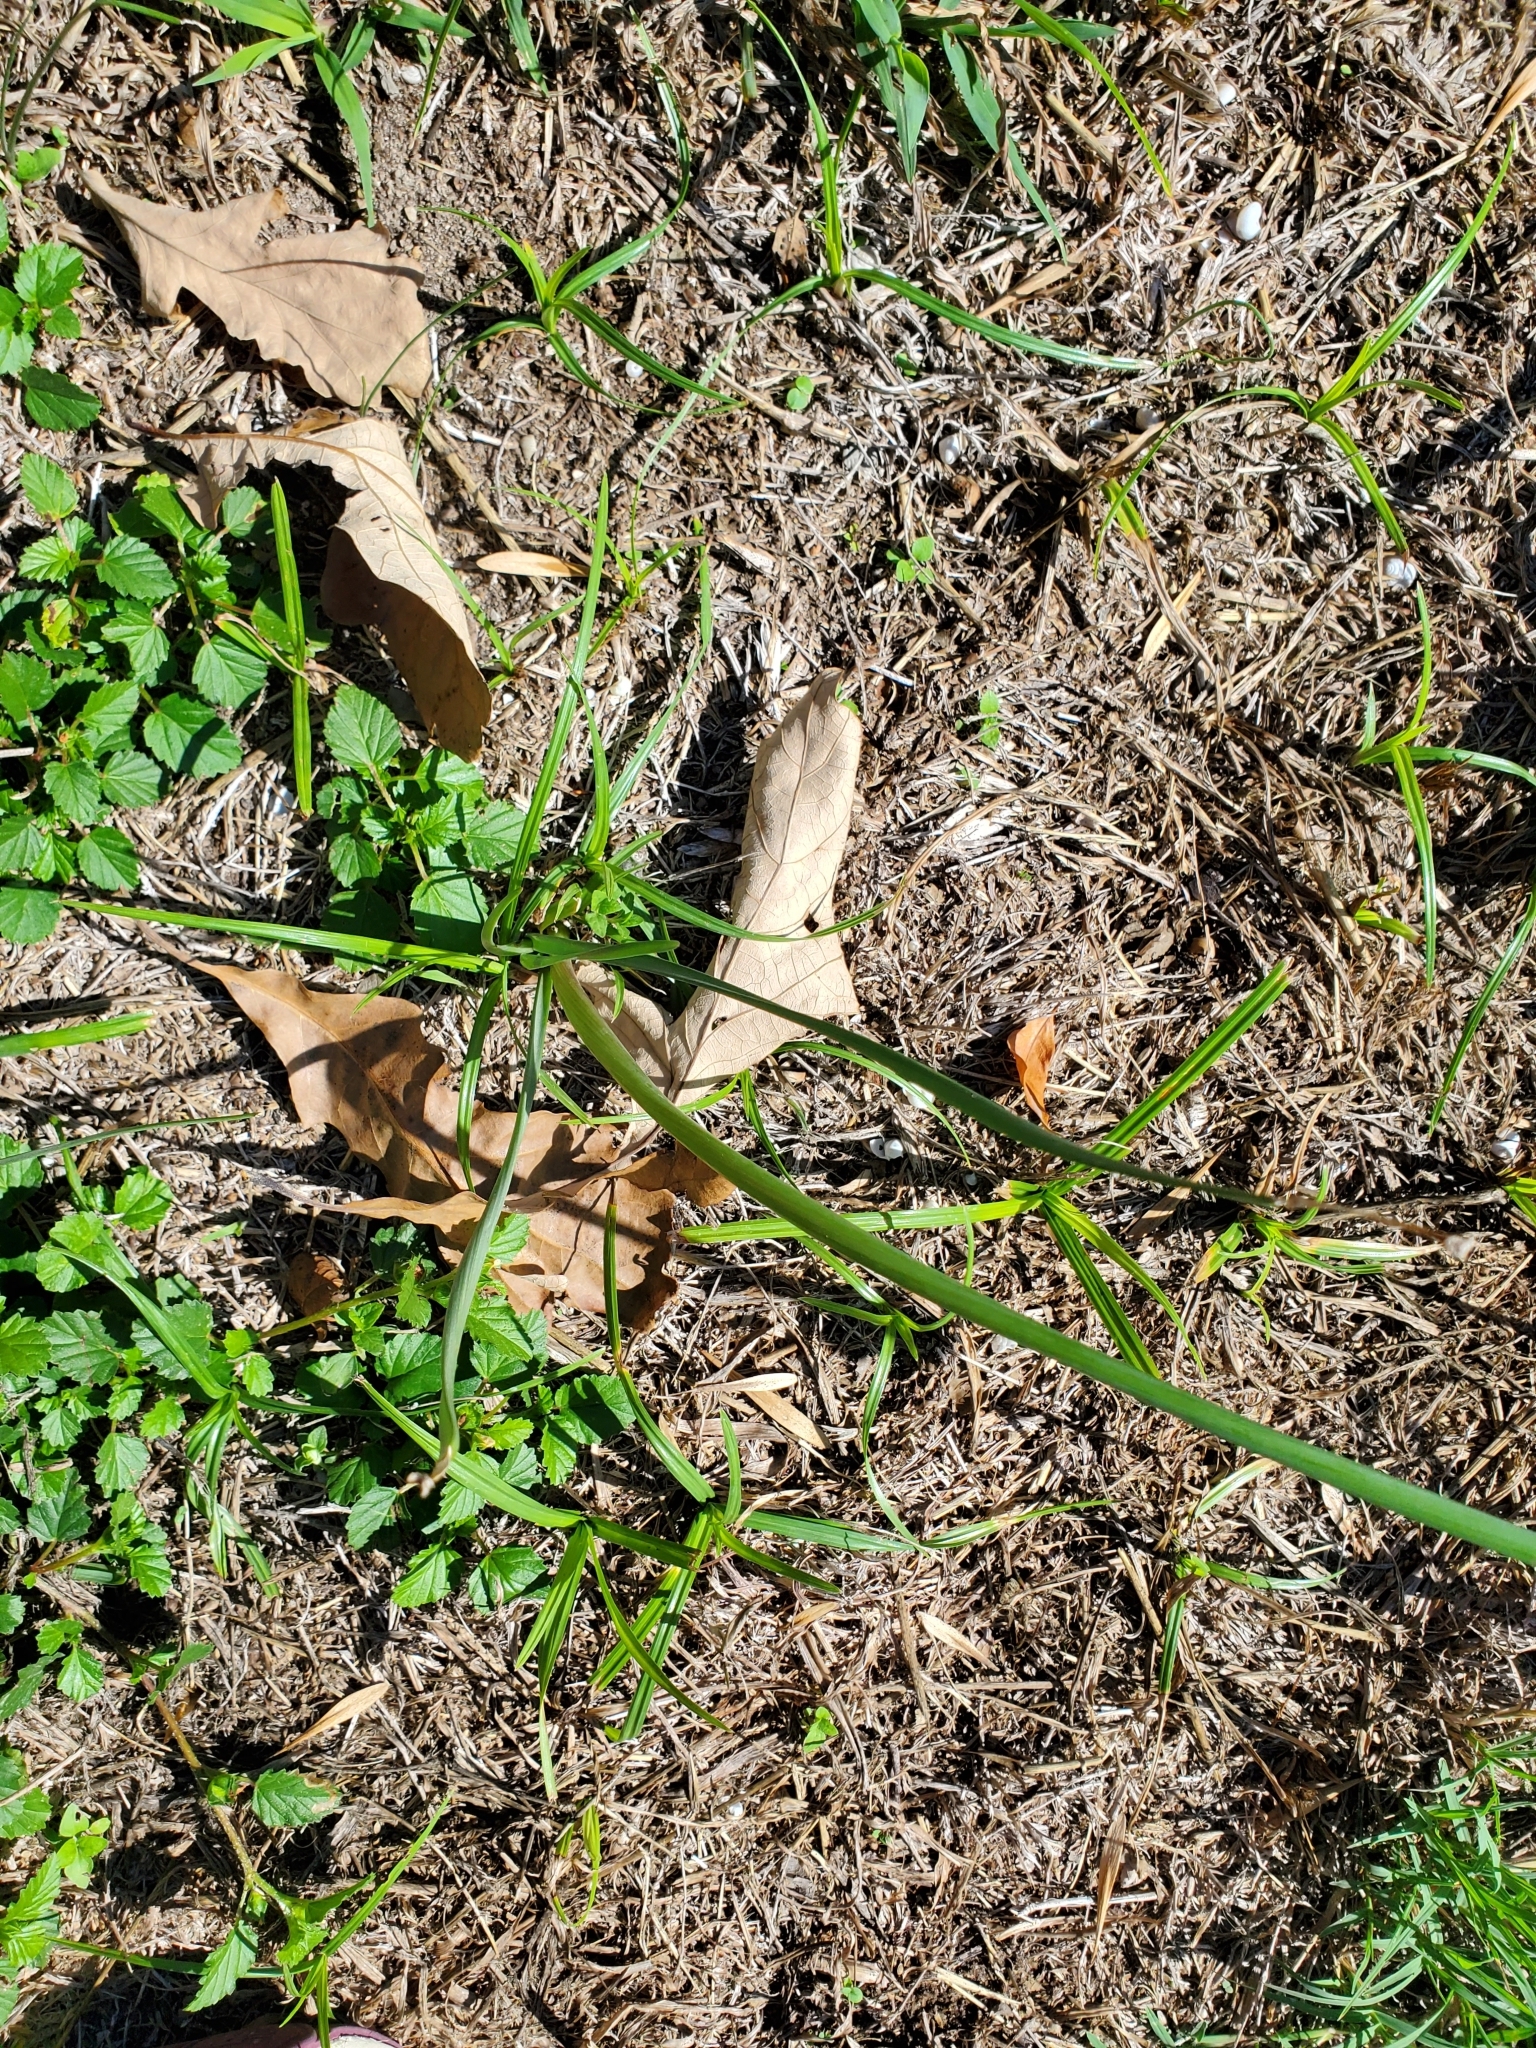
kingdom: Plantae
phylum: Tracheophyta
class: Liliopsida
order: Asparagales
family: Amaryllidaceae
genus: Zephyranthes
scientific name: Zephyranthes
